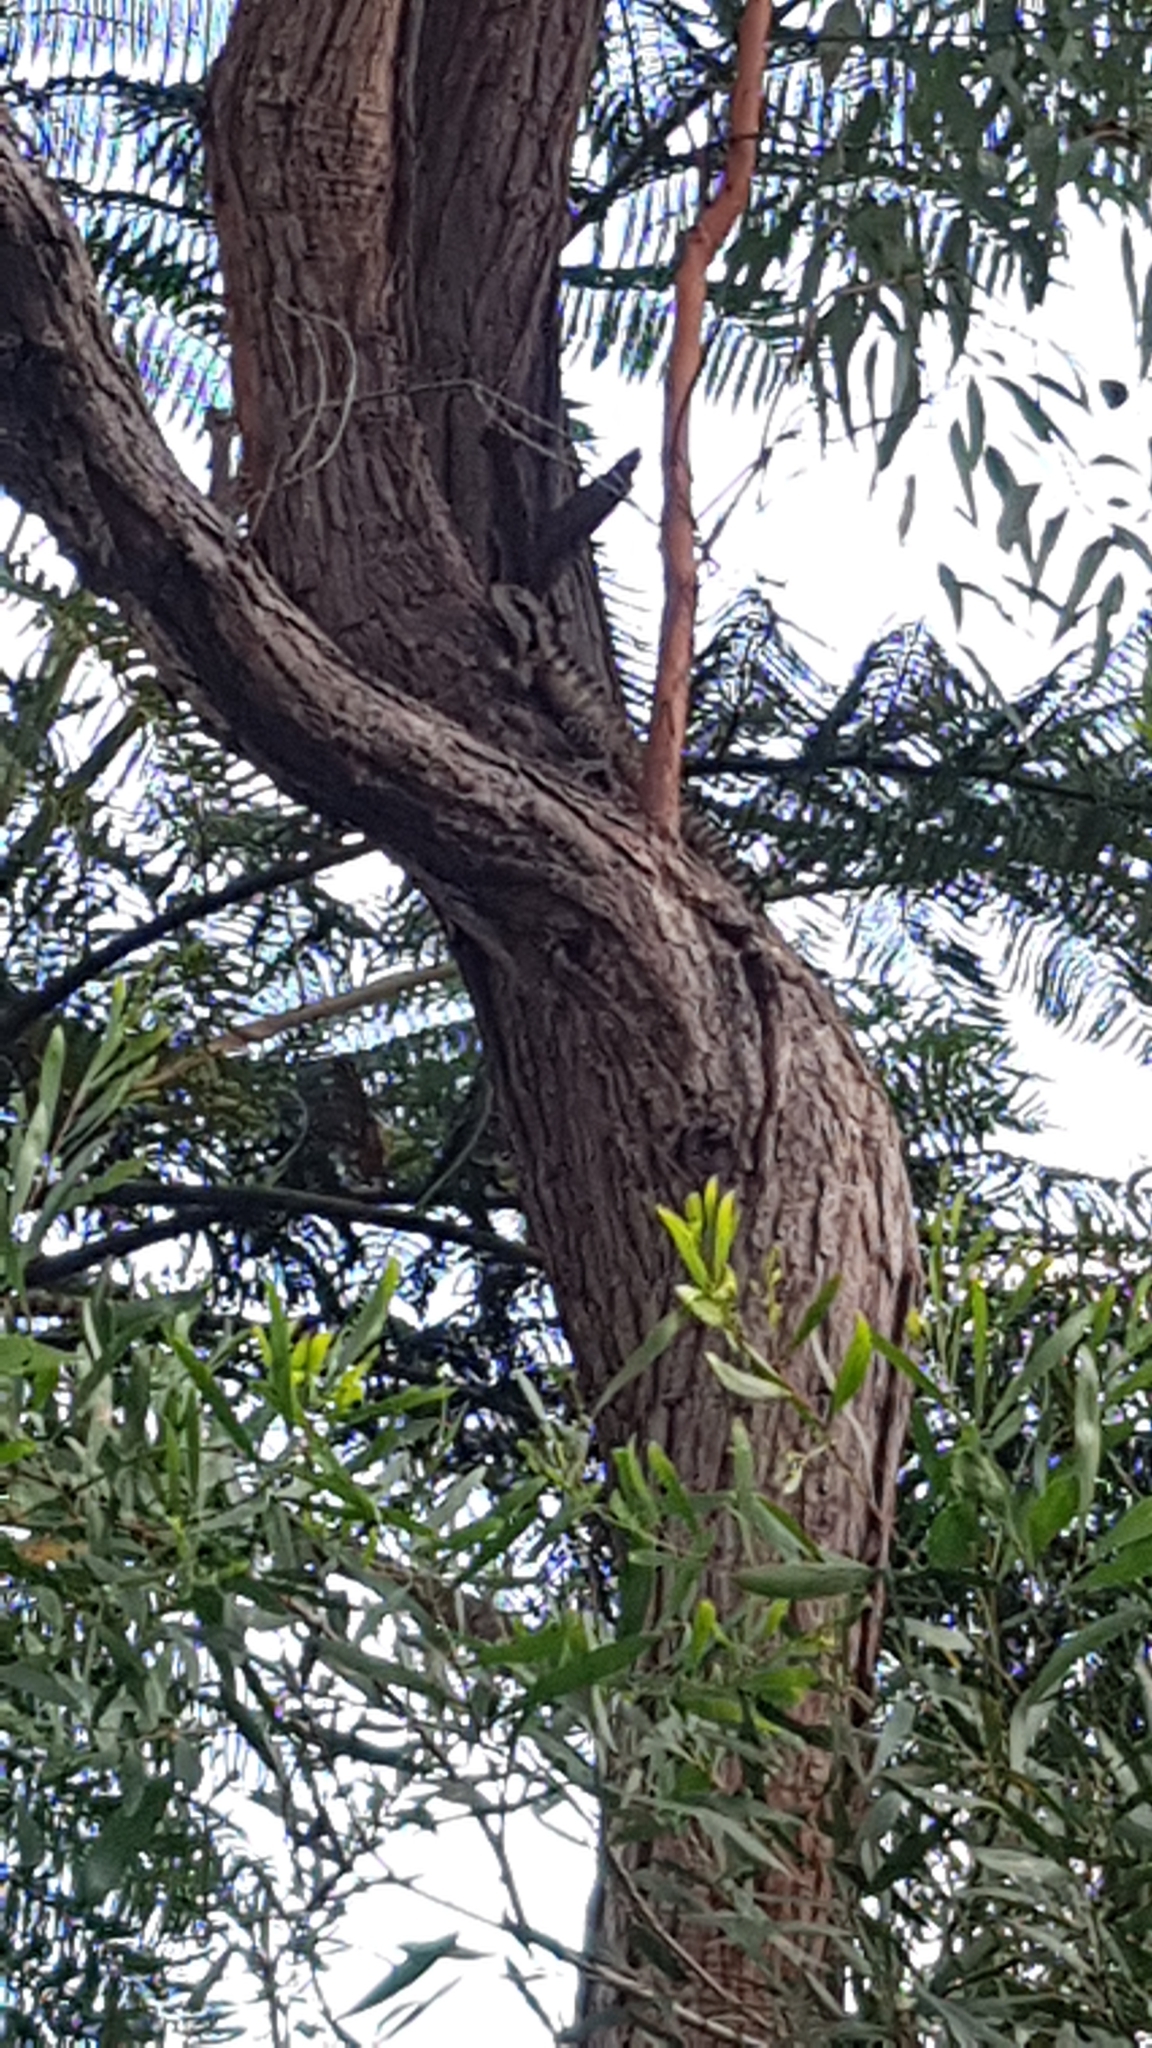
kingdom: Animalia
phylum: Chordata
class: Squamata
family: Agamidae
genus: Intellagama
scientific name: Intellagama lesueurii
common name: Eastern water dragon
